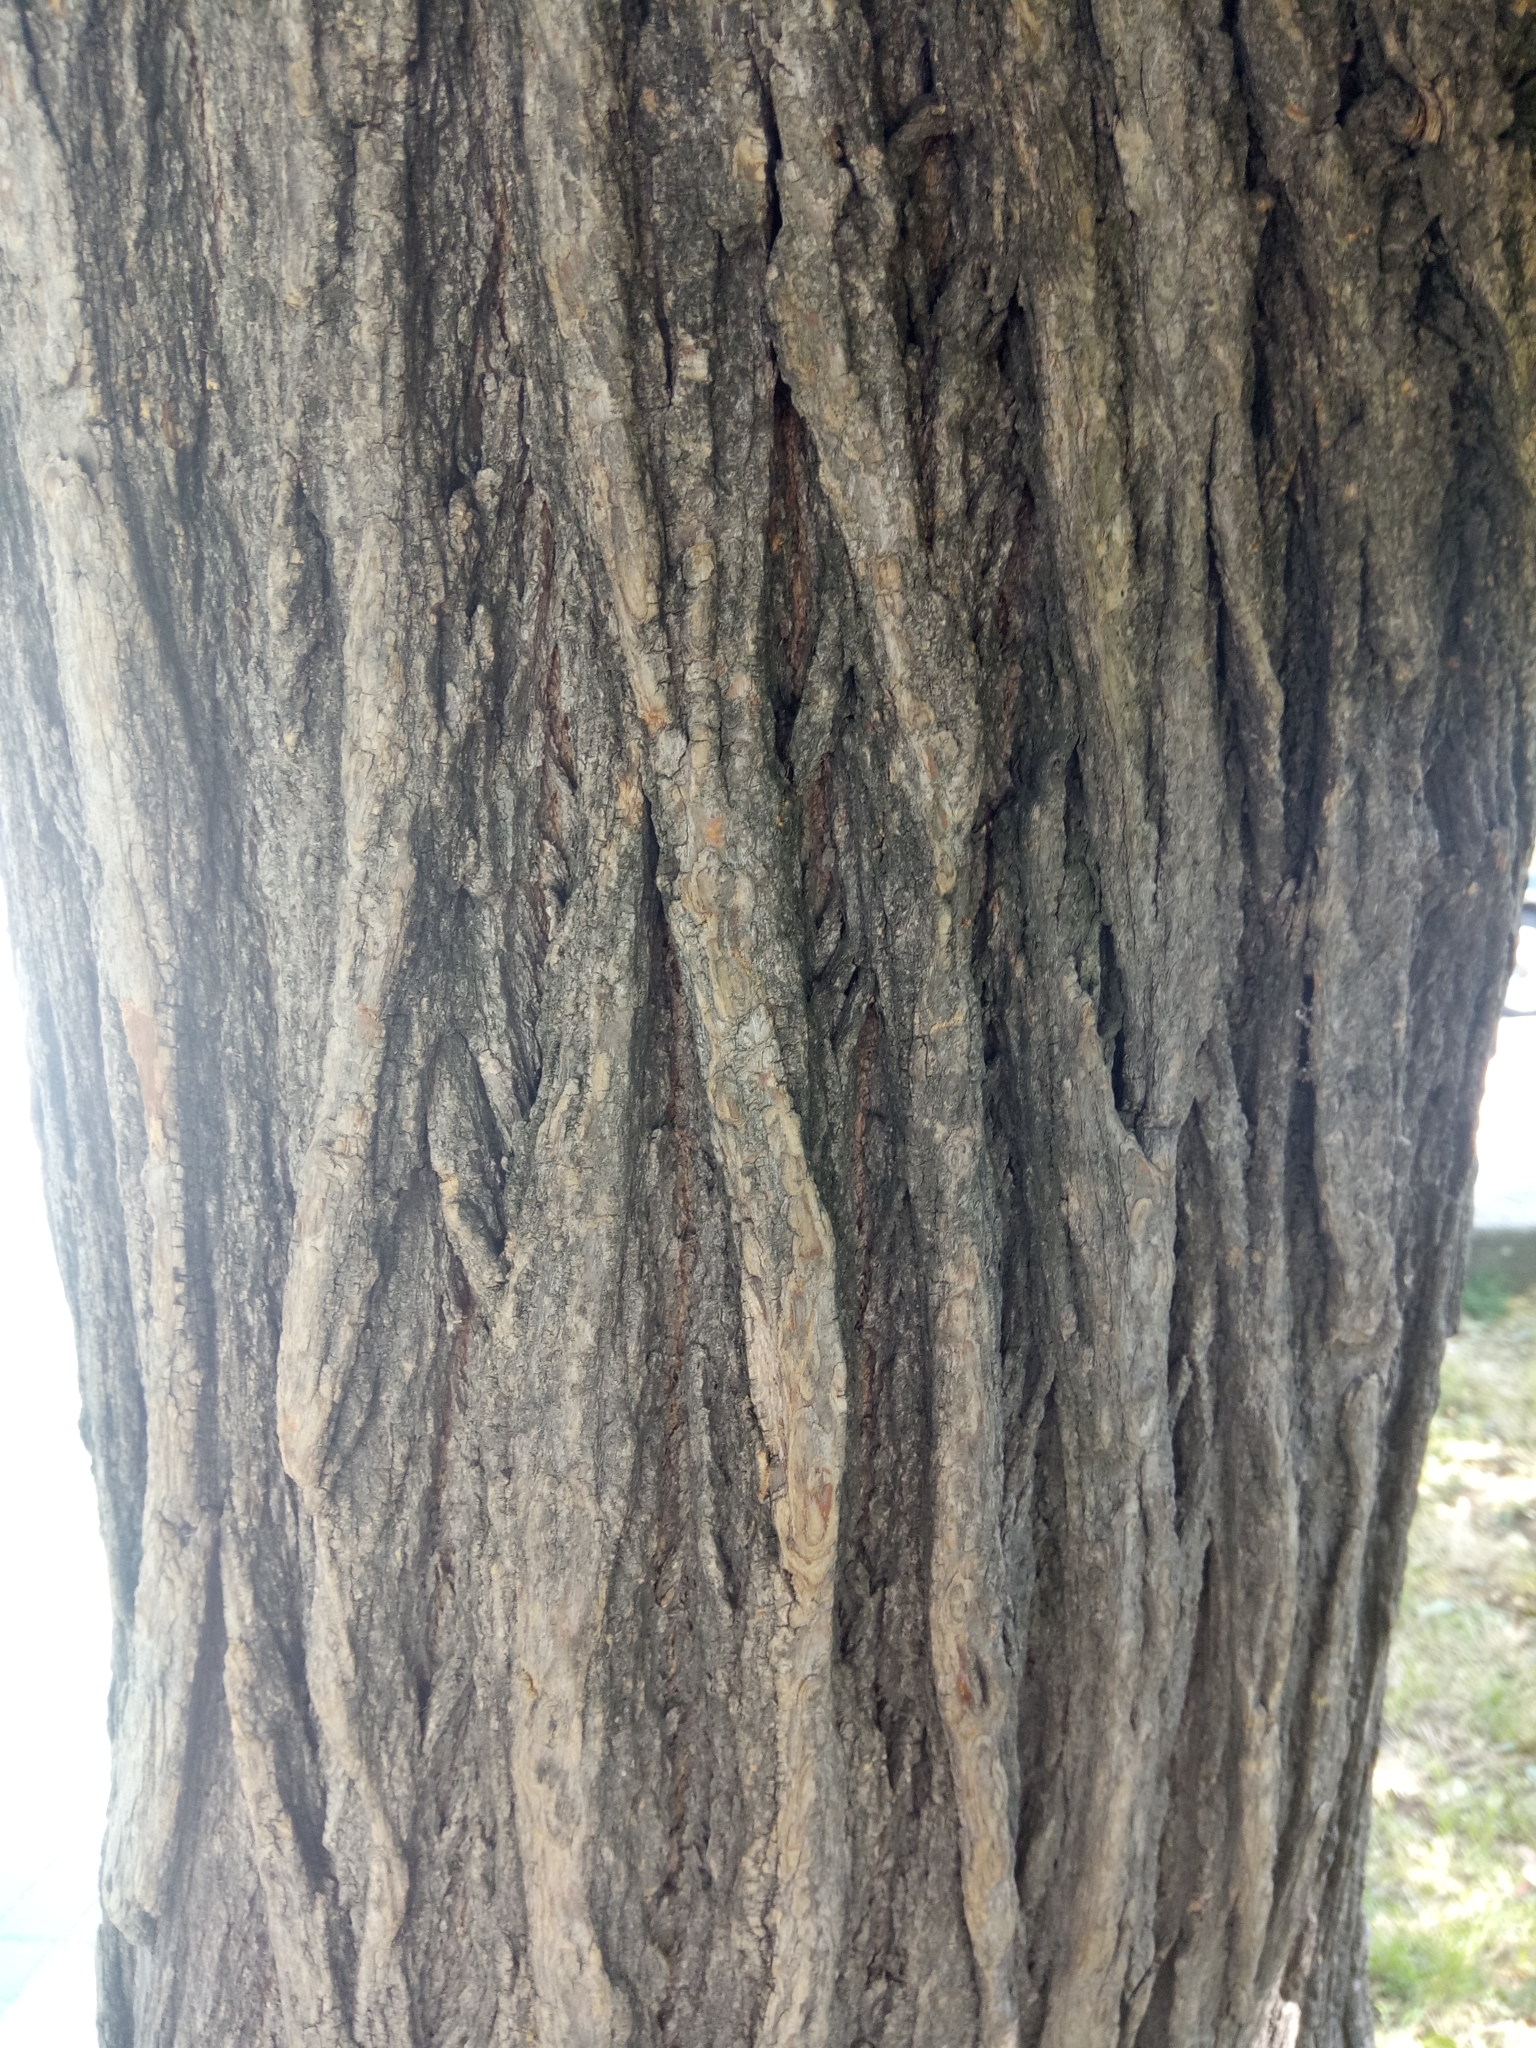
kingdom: Plantae
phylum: Tracheophyta
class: Magnoliopsida
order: Fabales
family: Fabaceae
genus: Styphnolobium
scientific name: Styphnolobium japonicum
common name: Chinese scholartree
